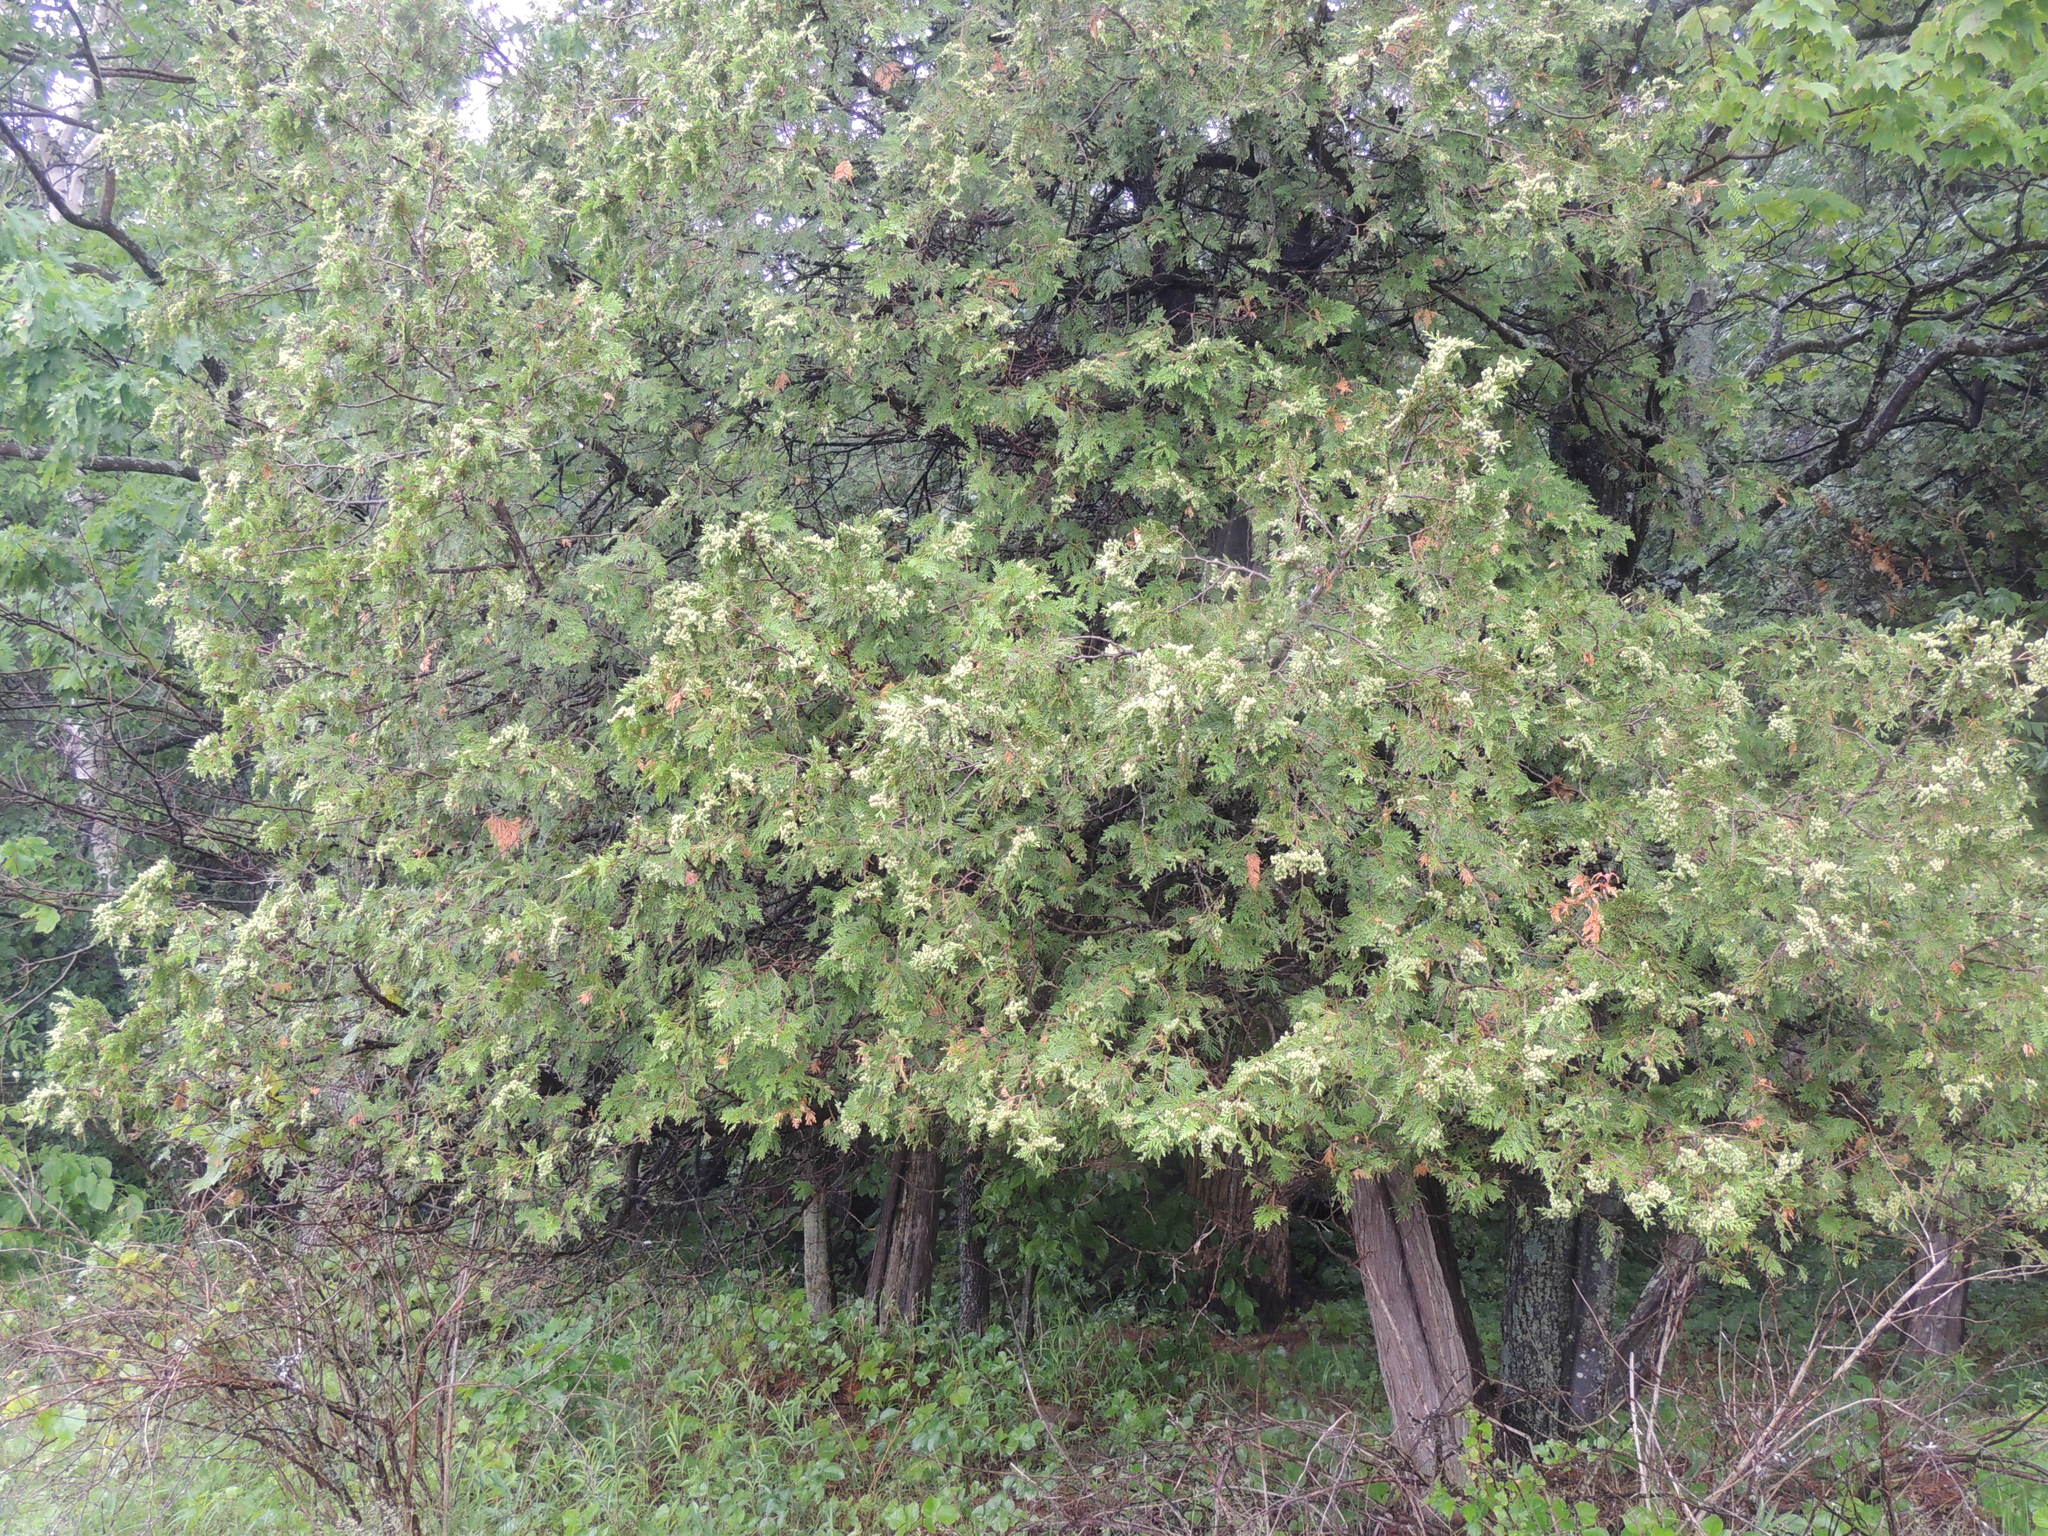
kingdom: Plantae
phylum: Tracheophyta
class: Pinopsida
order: Pinales
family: Cupressaceae
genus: Thuja
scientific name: Thuja occidentalis
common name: Northern white-cedar
